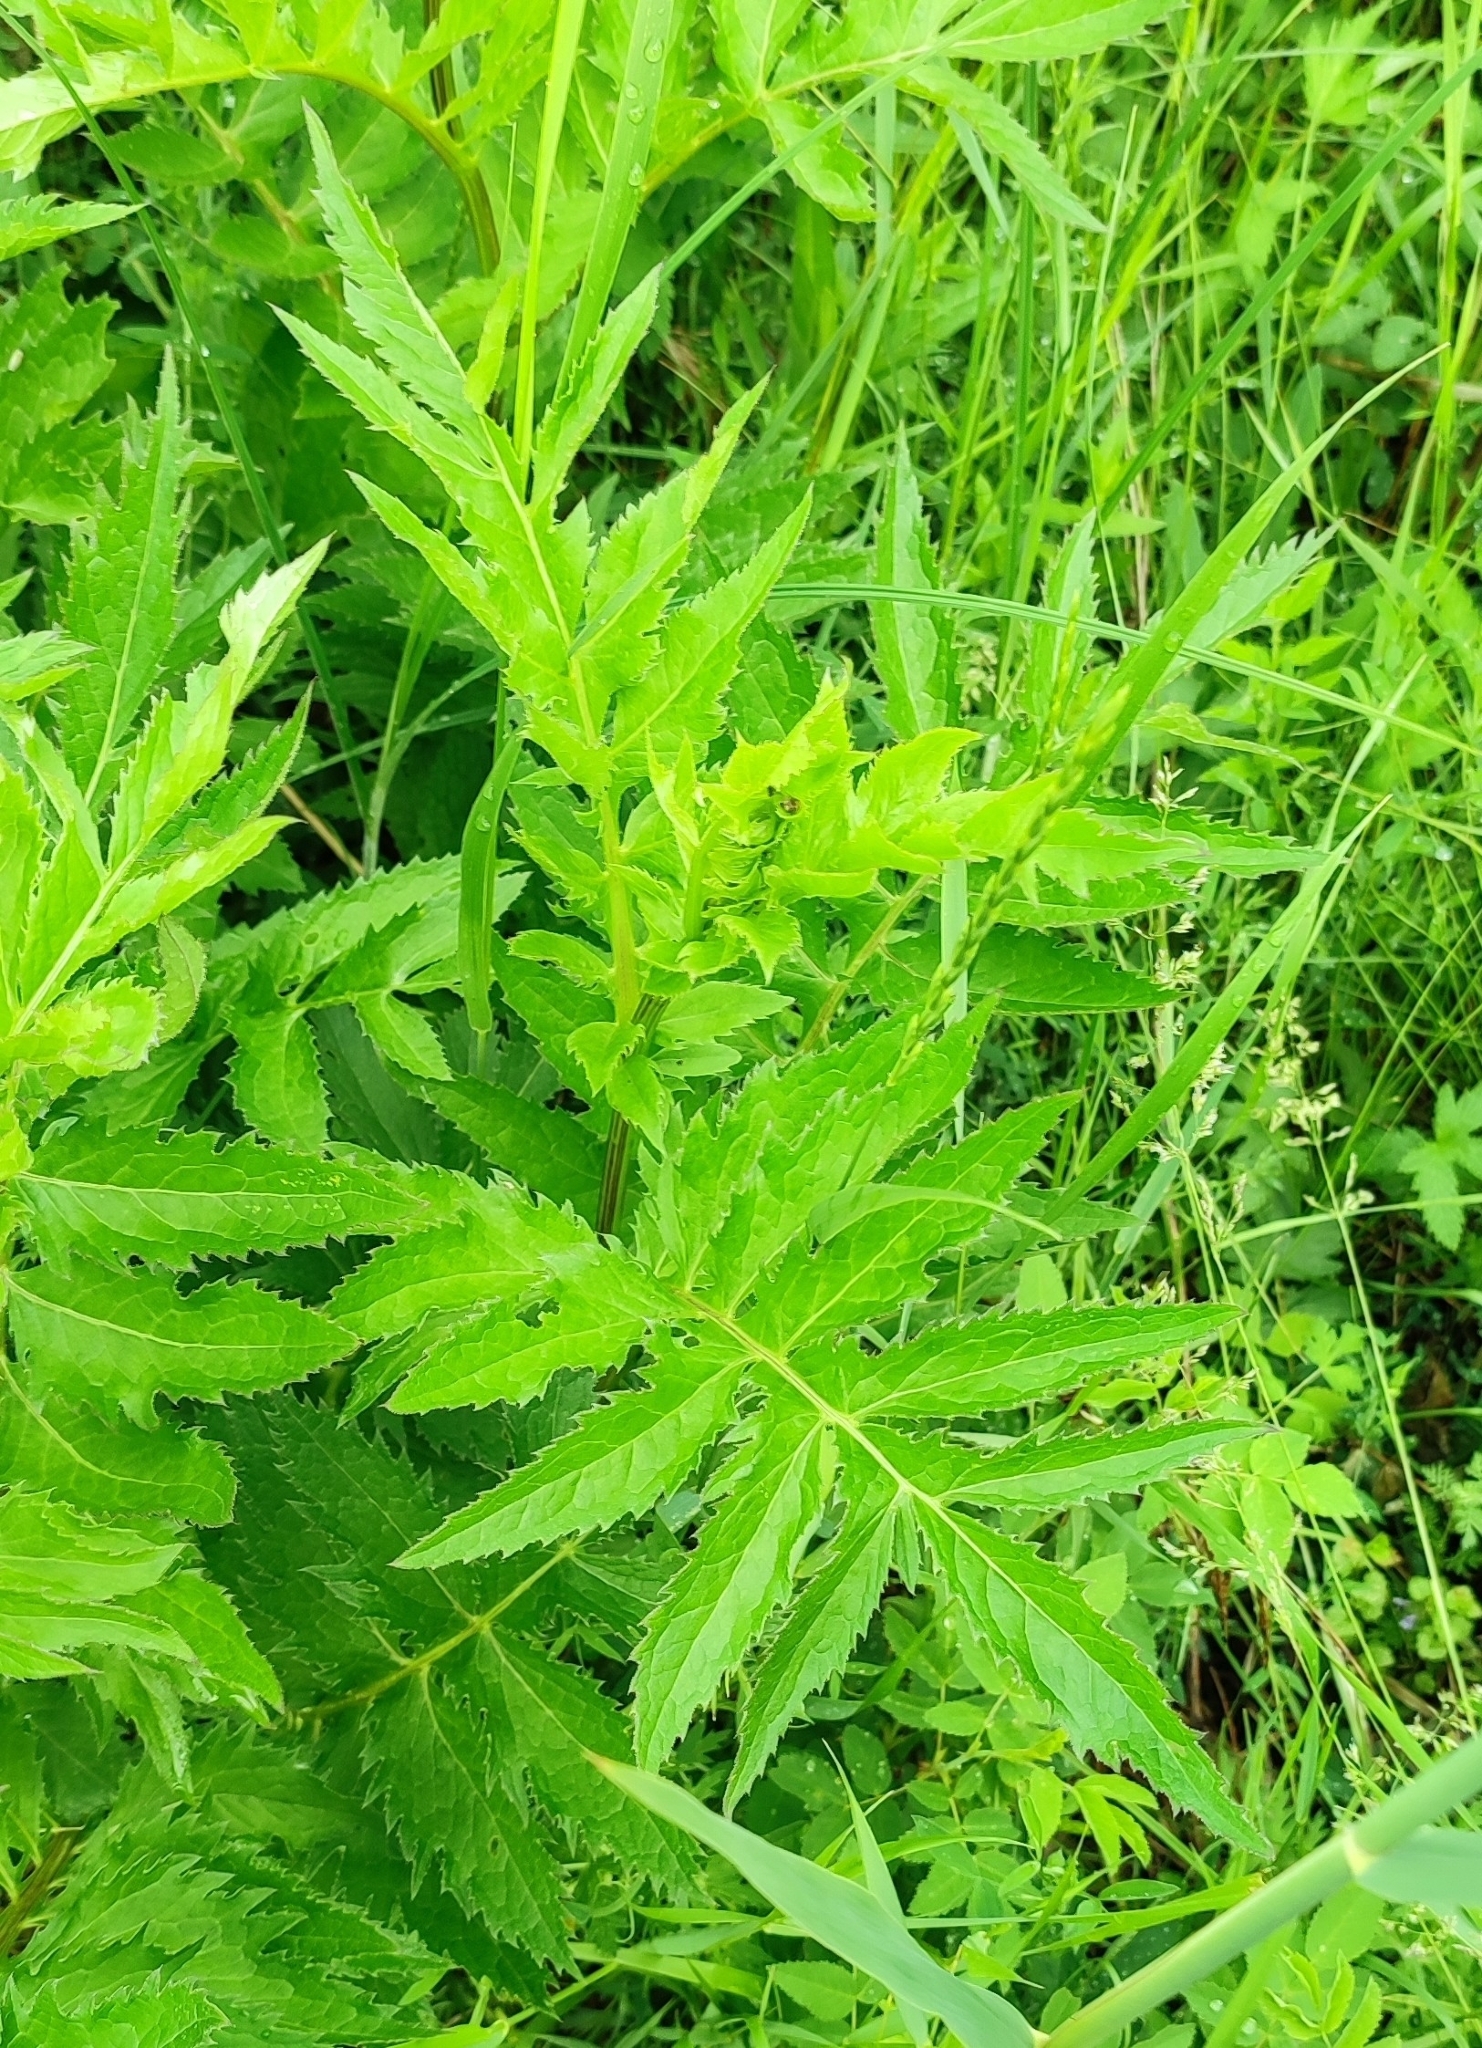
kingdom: Plantae
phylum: Tracheophyta
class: Magnoliopsida
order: Asterales
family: Asteraceae
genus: Serratula
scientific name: Serratula coronata
